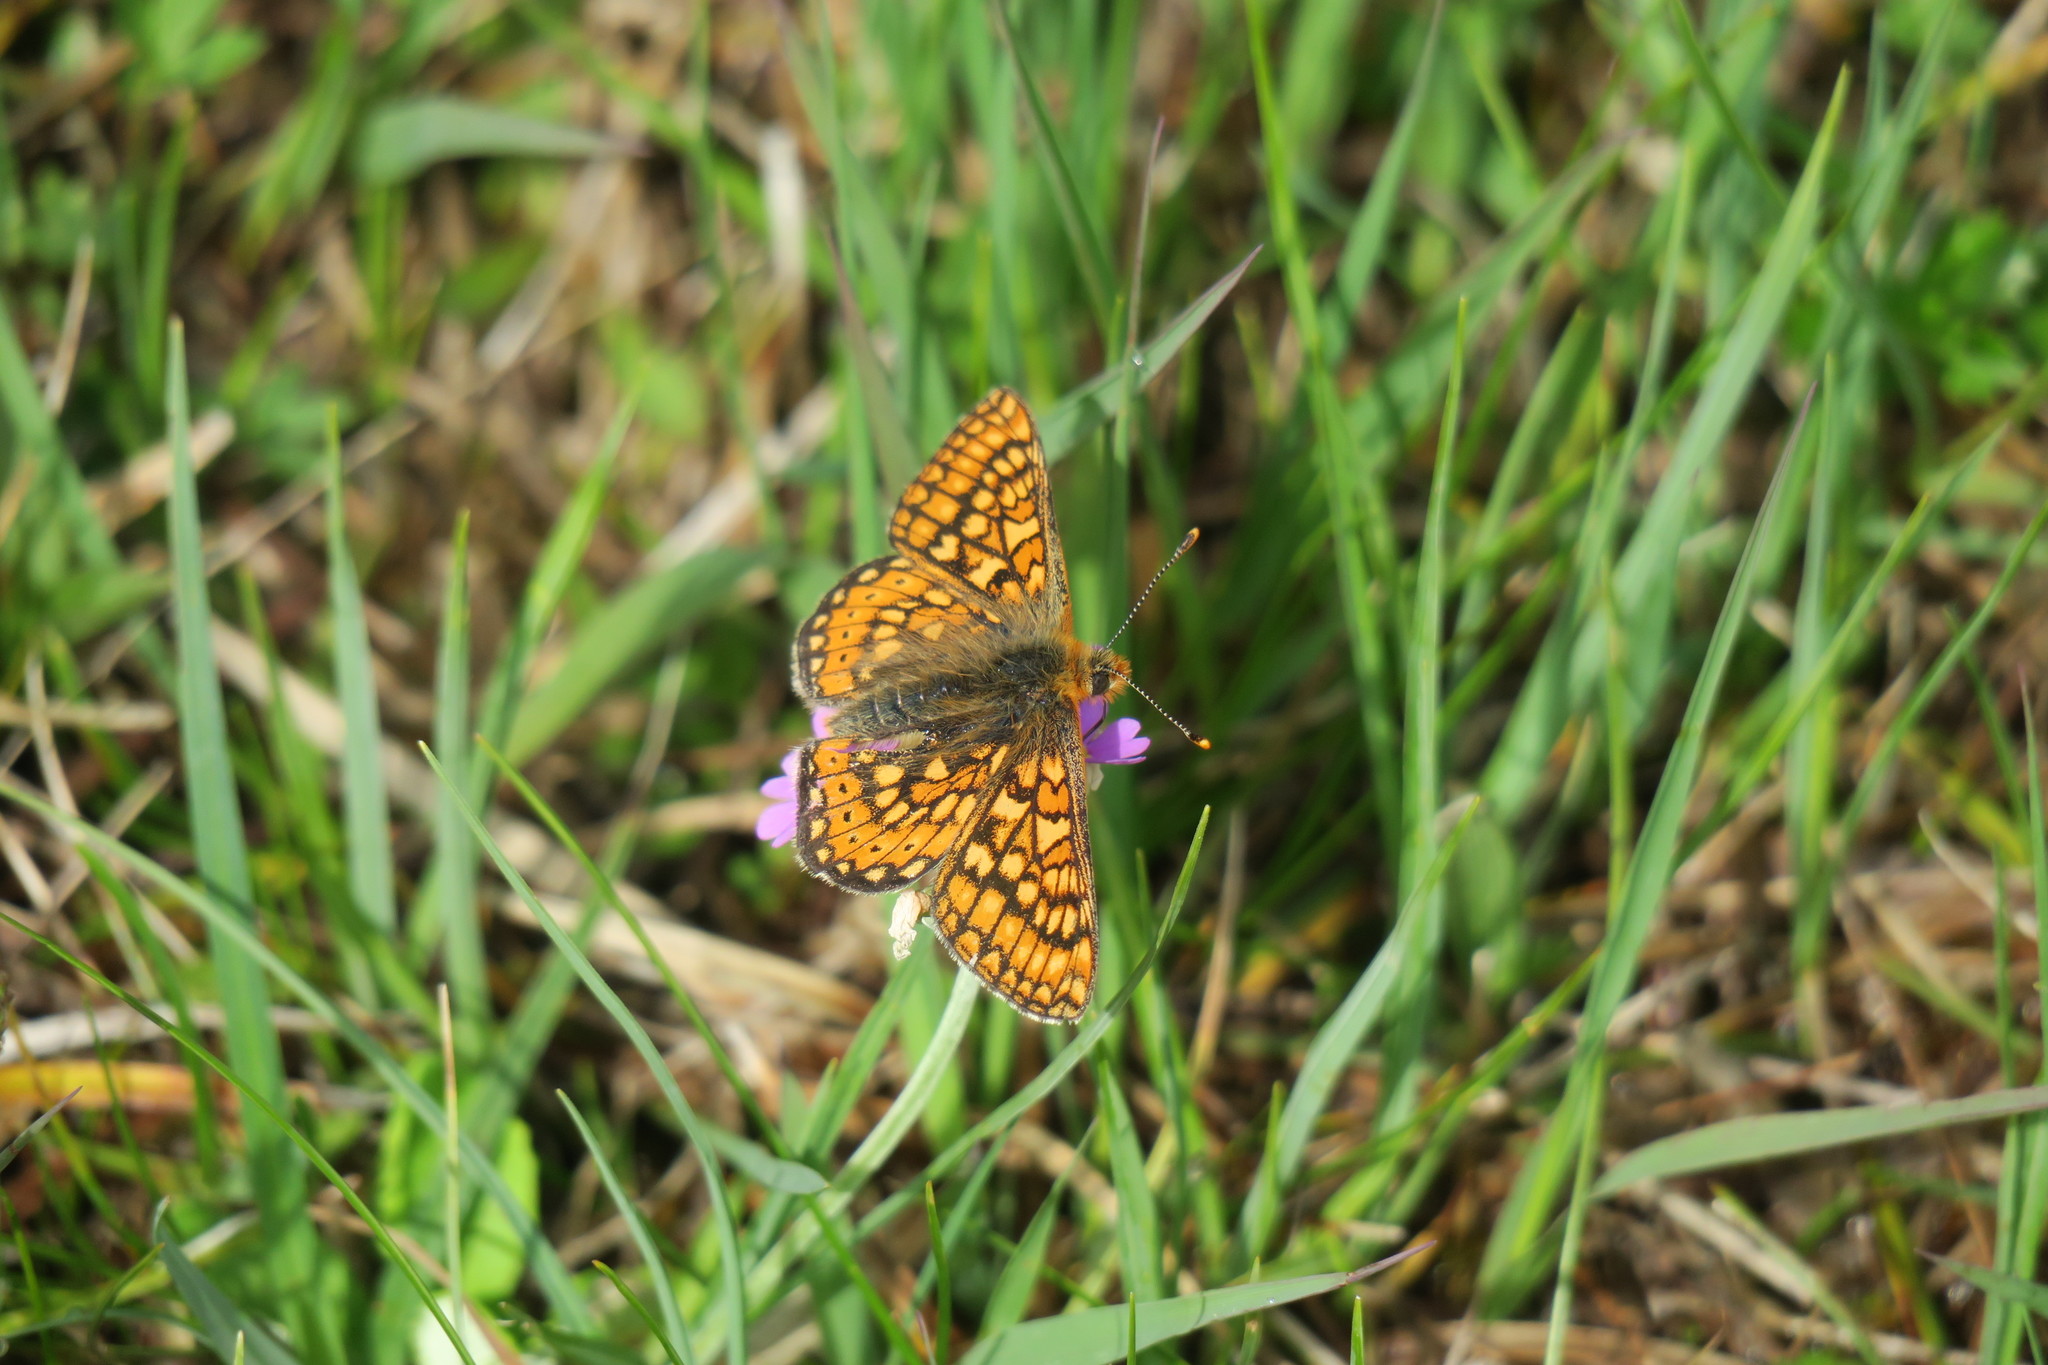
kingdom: Animalia
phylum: Arthropoda
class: Insecta
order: Lepidoptera
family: Nymphalidae
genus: Euphydryas
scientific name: Euphydryas aurinia
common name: Marsh fritillary
